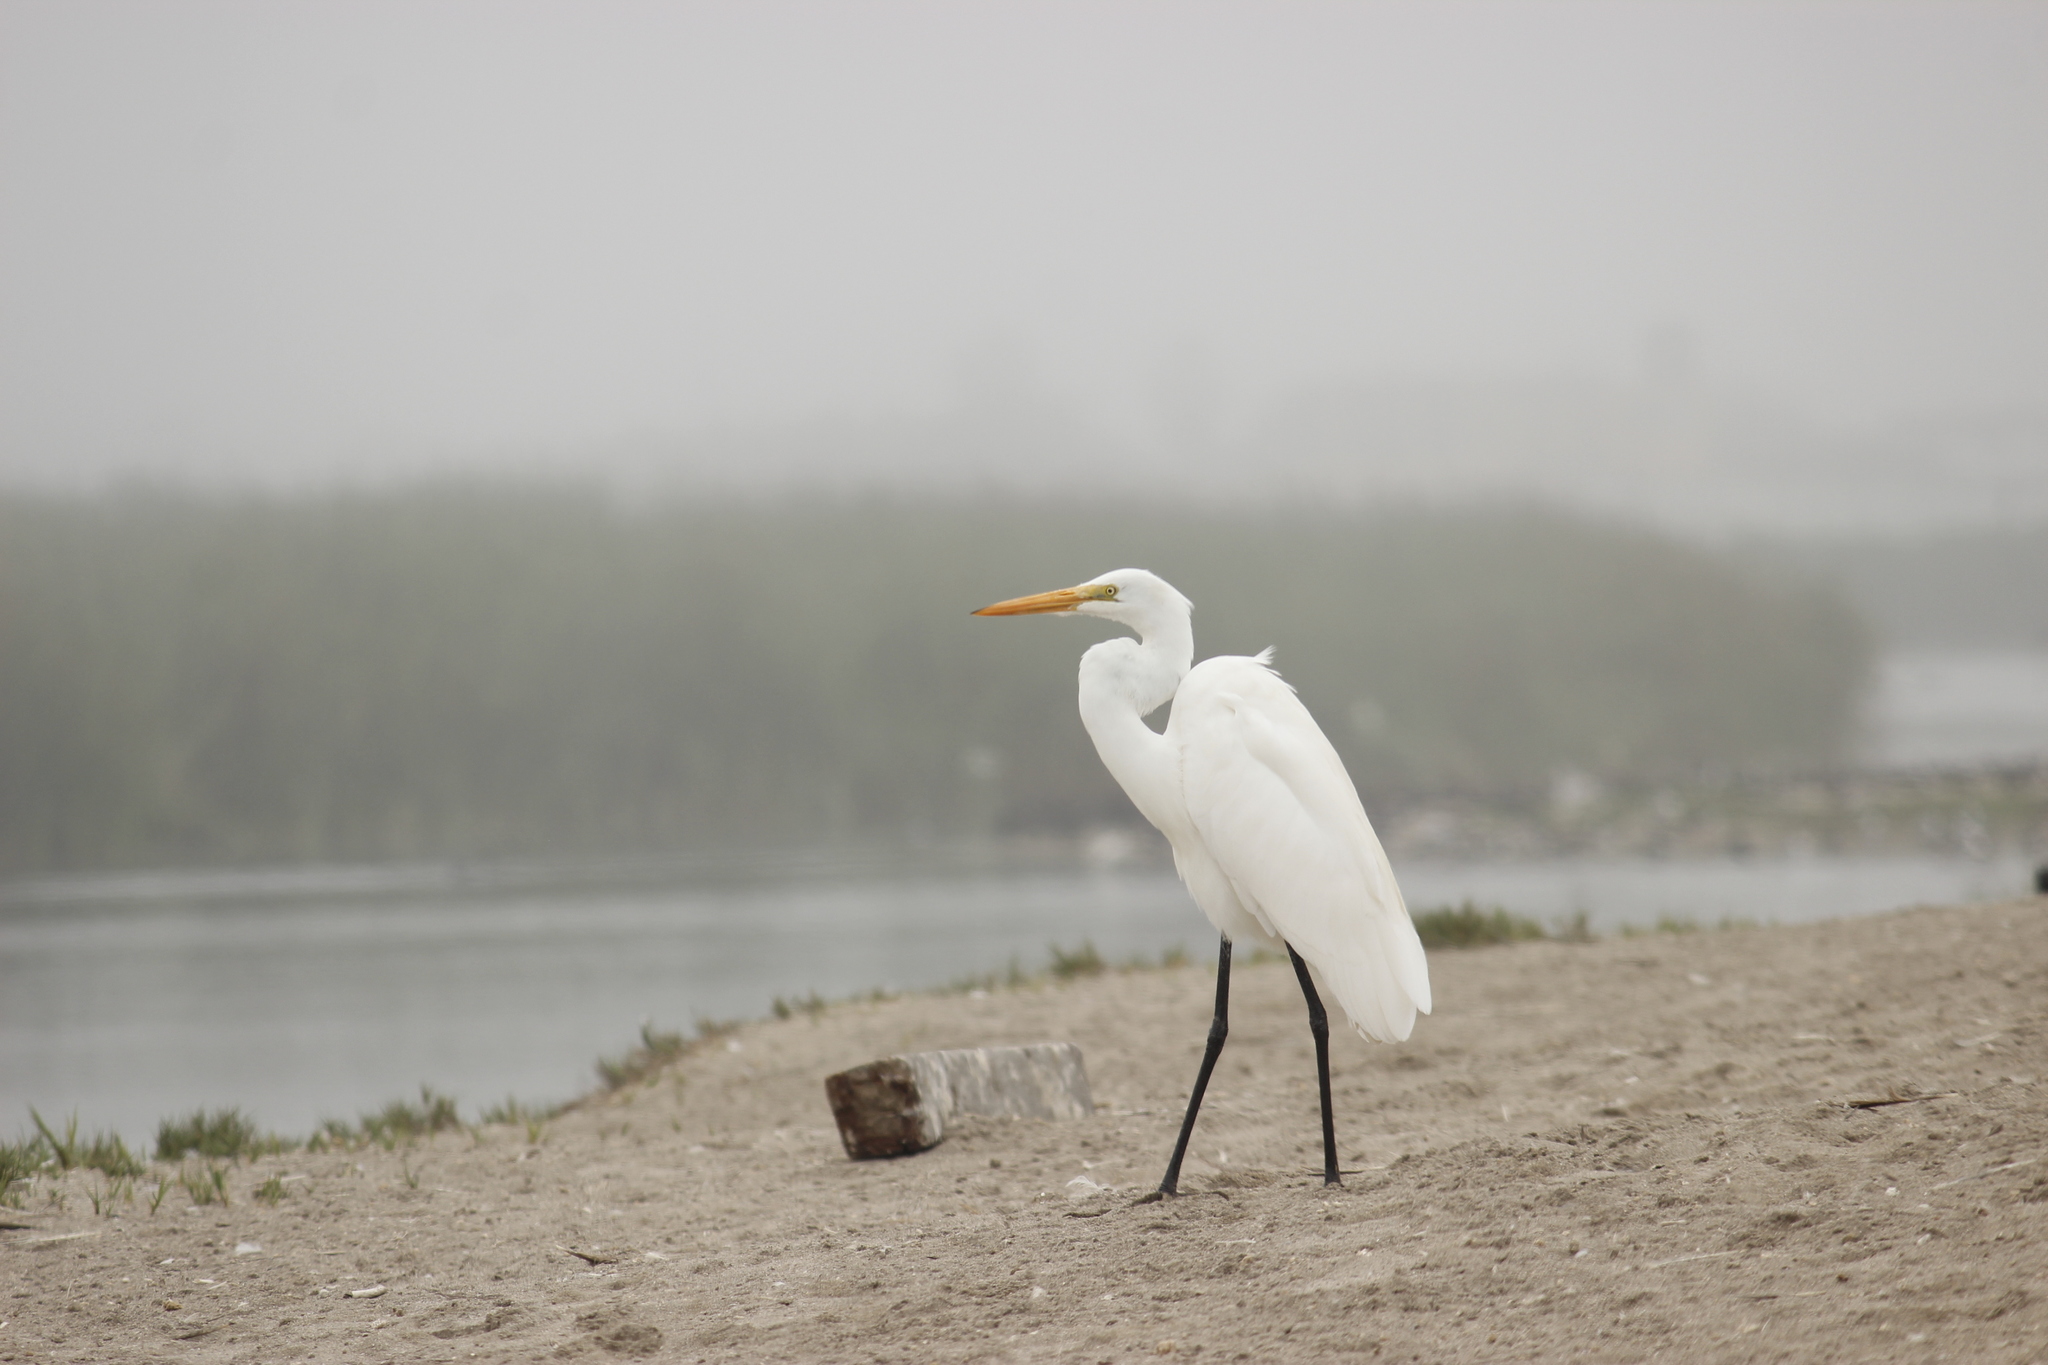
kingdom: Animalia
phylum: Chordata
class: Aves
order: Pelecaniformes
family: Ardeidae
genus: Ardea
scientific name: Ardea alba
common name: Great egret
